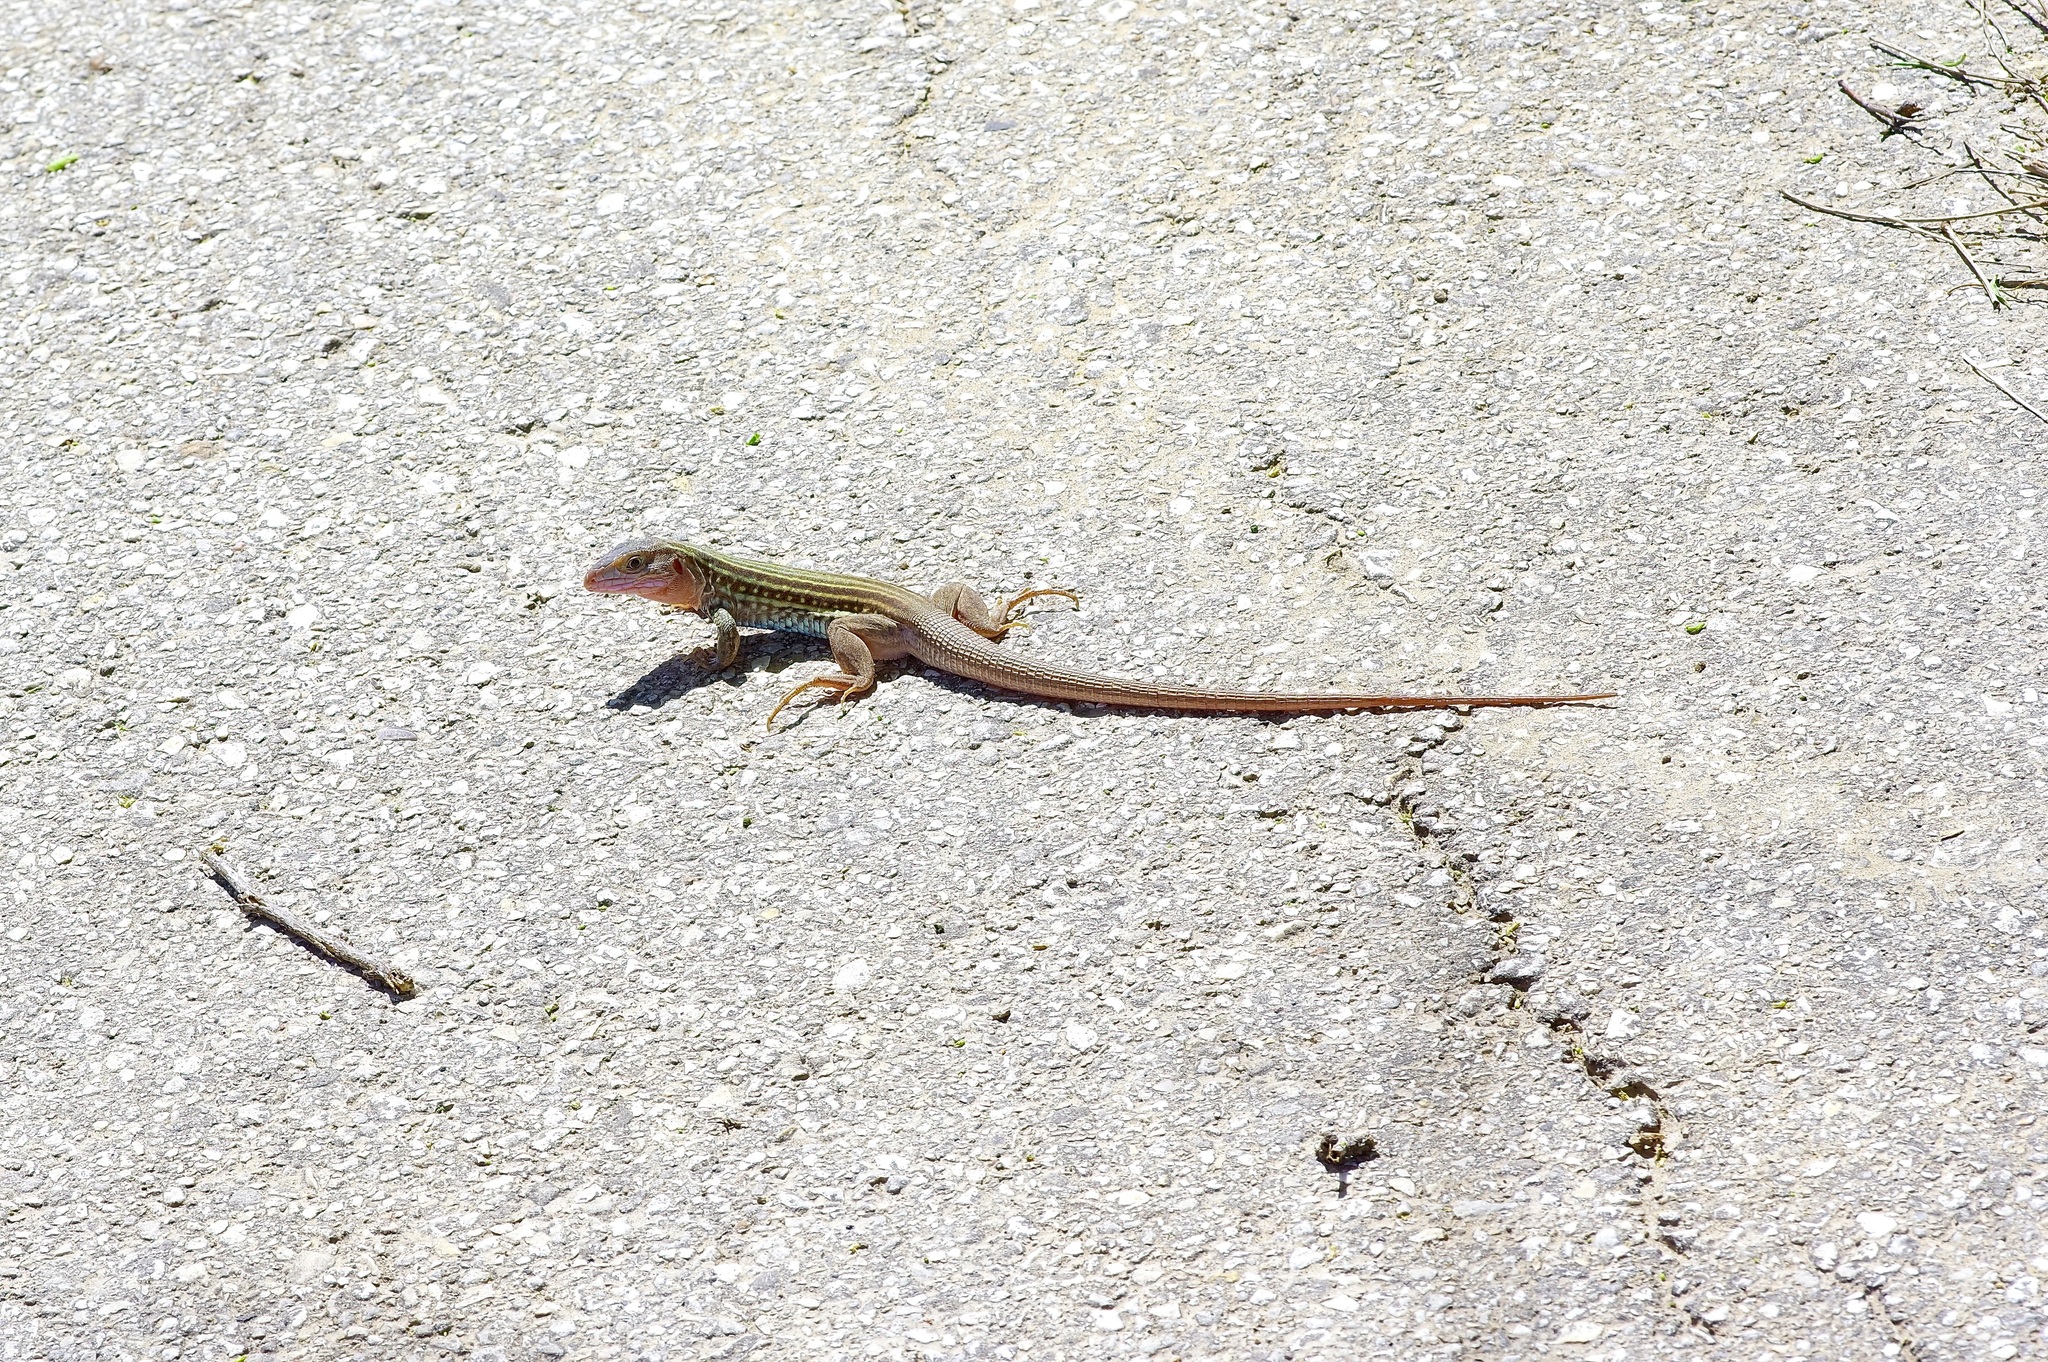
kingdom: Animalia
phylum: Chordata
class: Squamata
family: Teiidae
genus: Aspidoscelis
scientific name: Aspidoscelis gularis
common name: Eastern spotted whiptail
